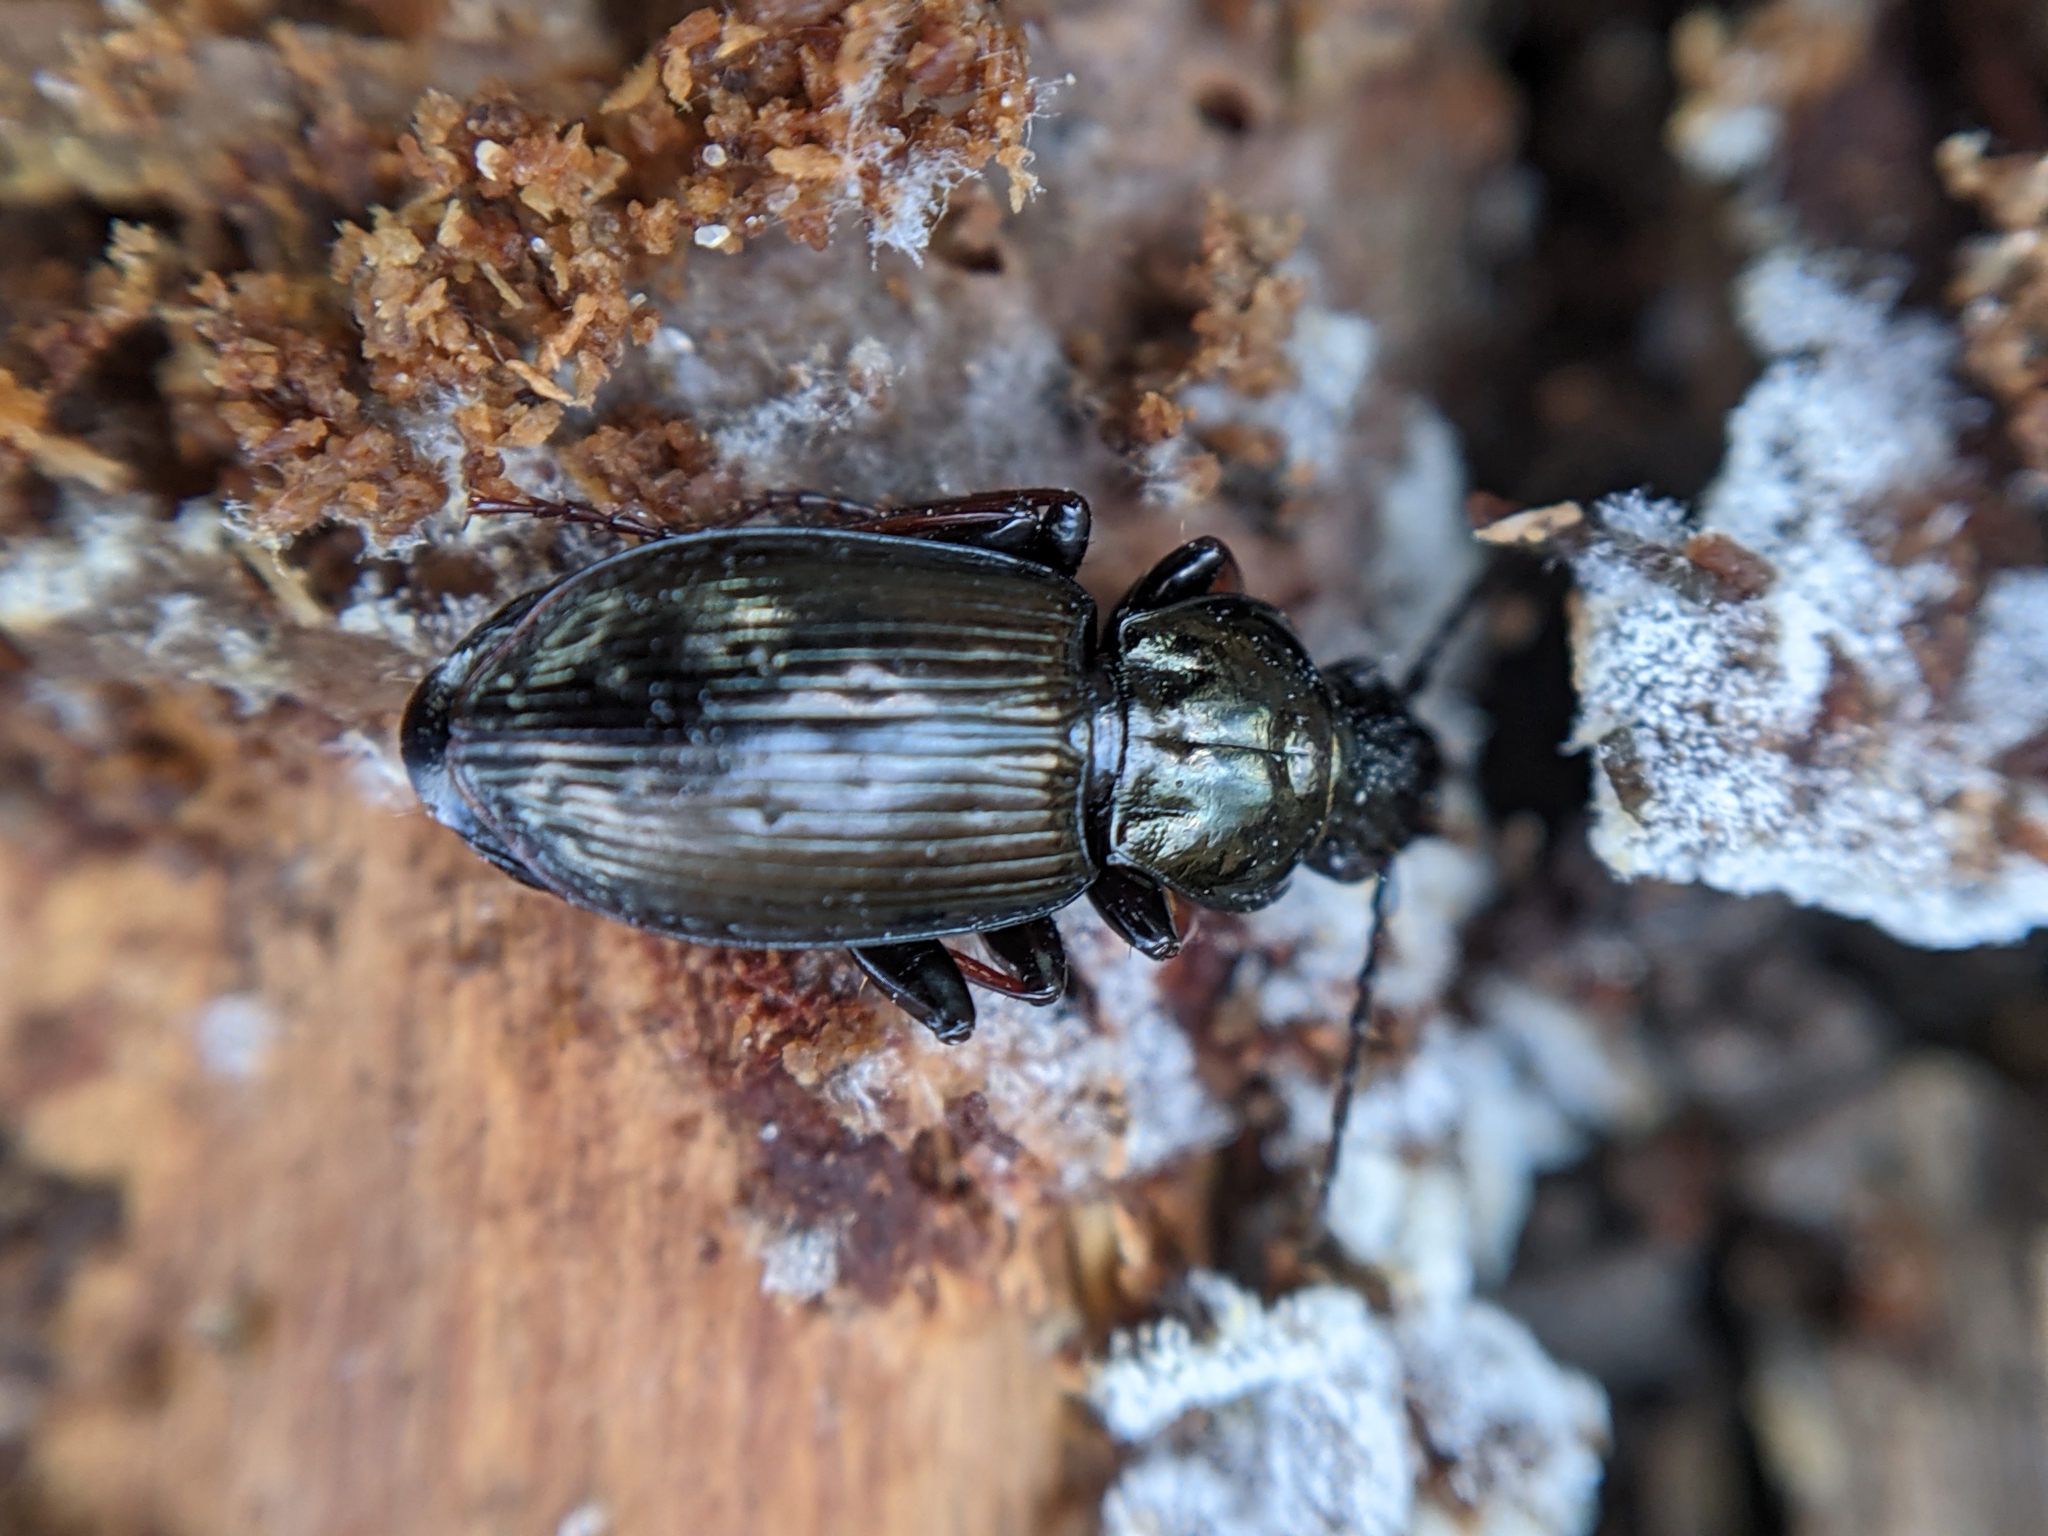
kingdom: Animalia
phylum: Arthropoda
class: Insecta
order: Coleoptera
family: Carabidae
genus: Pterostichus
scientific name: Pterostichus oblongopunctatus
